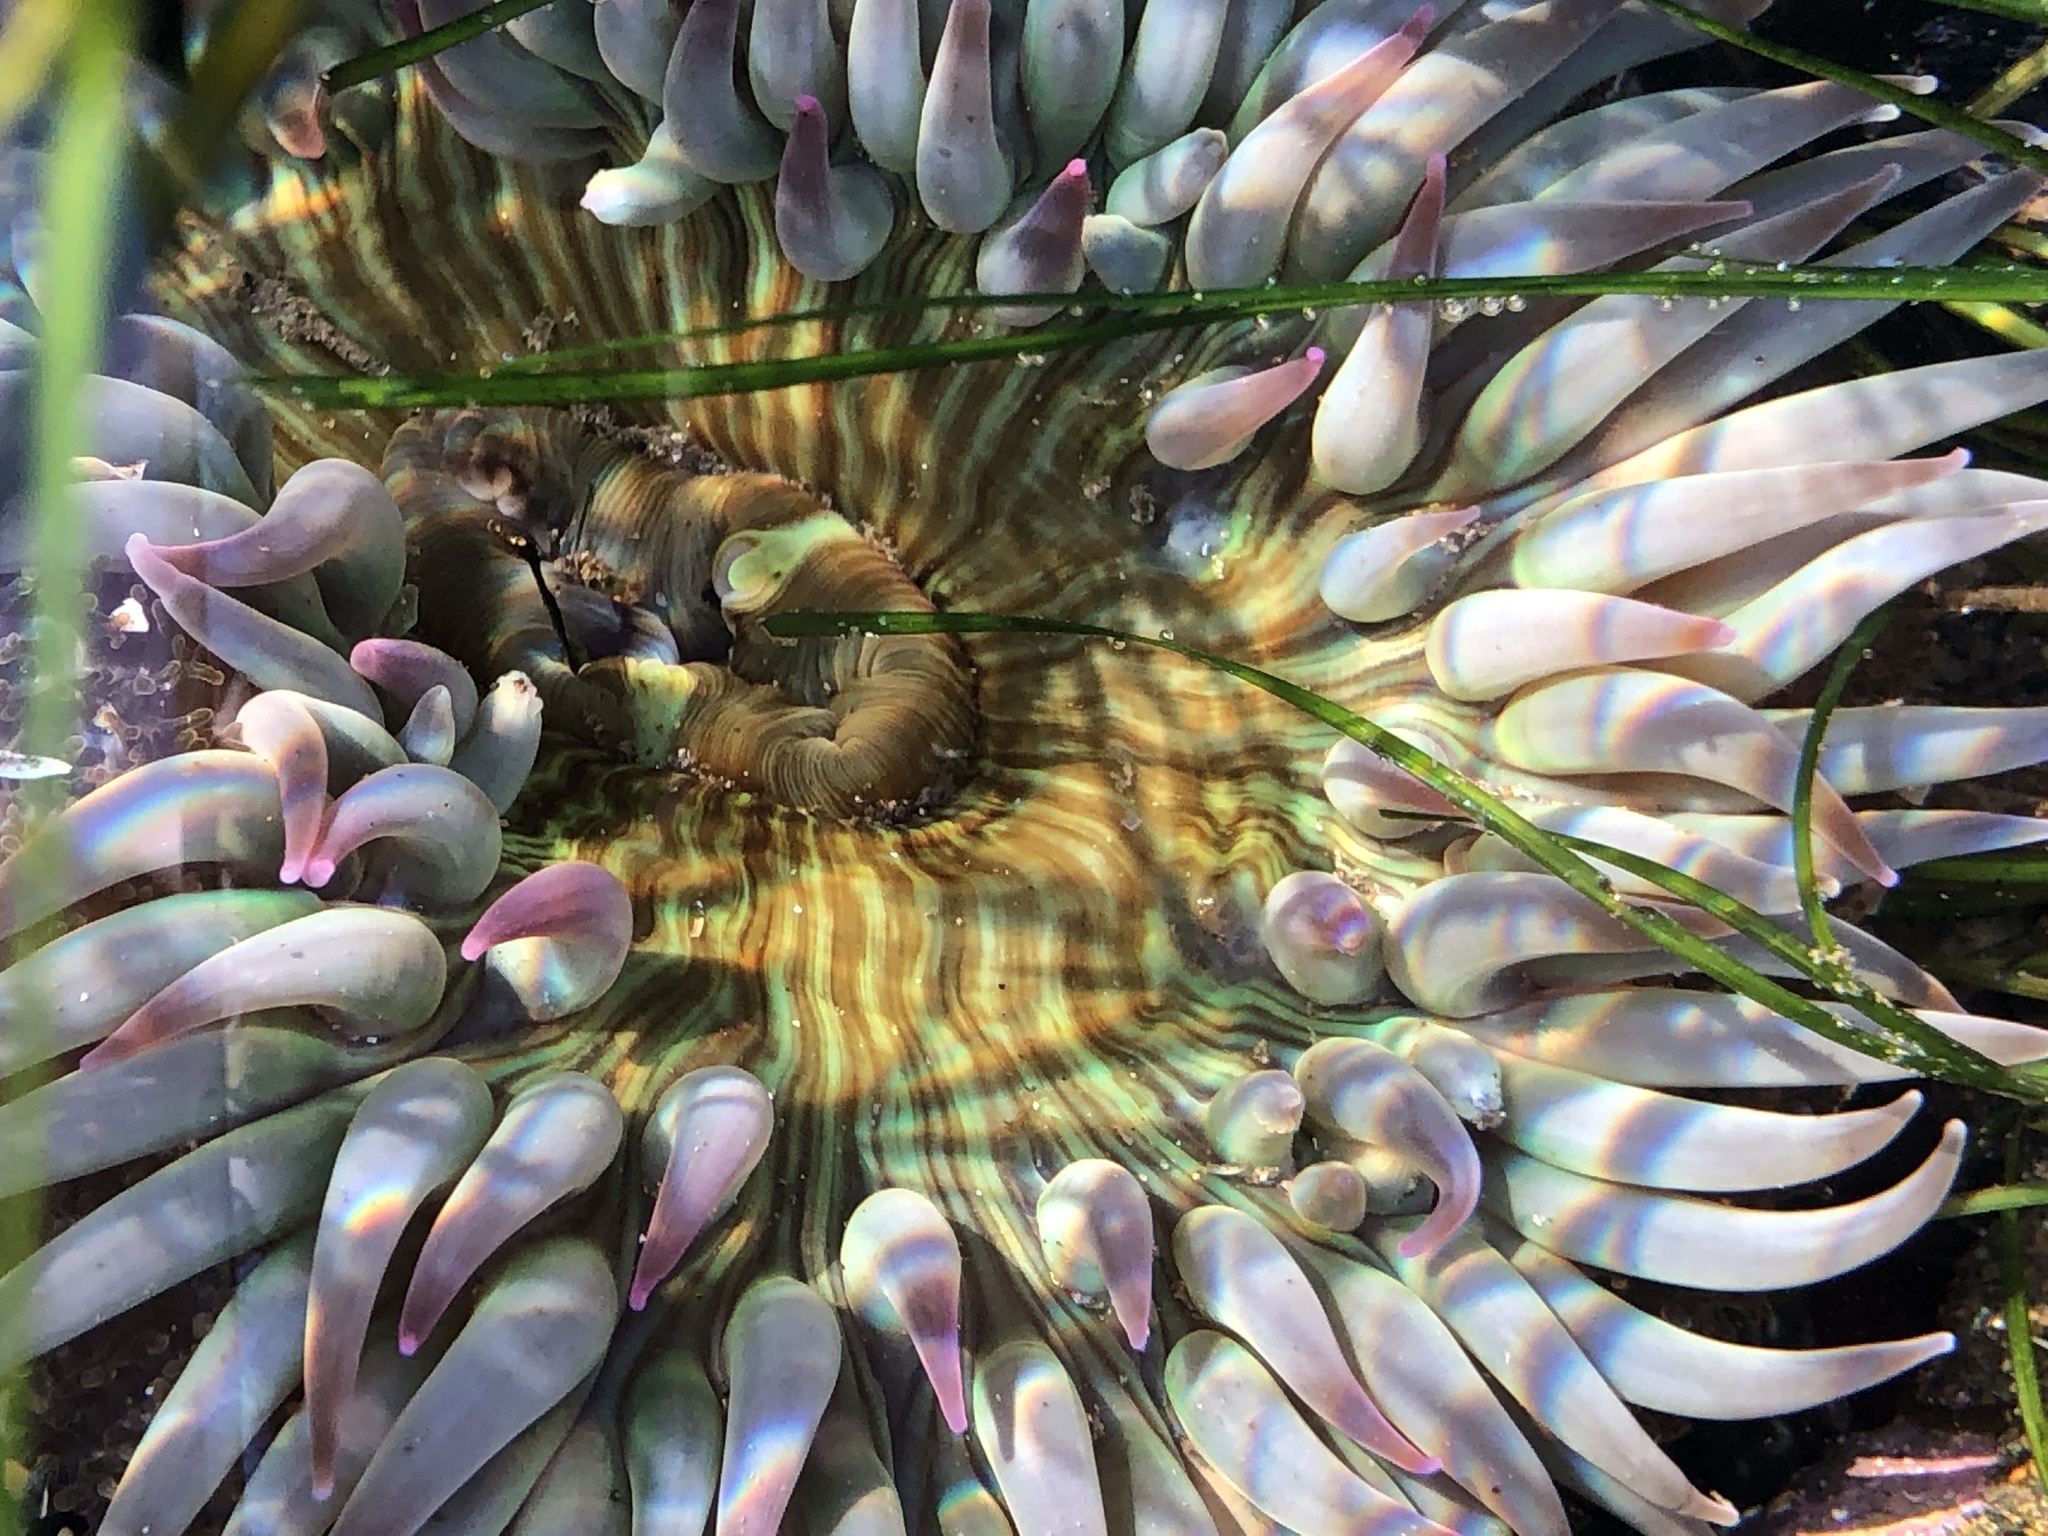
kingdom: Animalia
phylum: Cnidaria
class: Anthozoa
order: Actiniaria
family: Actiniidae
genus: Anthopleura
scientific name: Anthopleura sola
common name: Sun anemone
